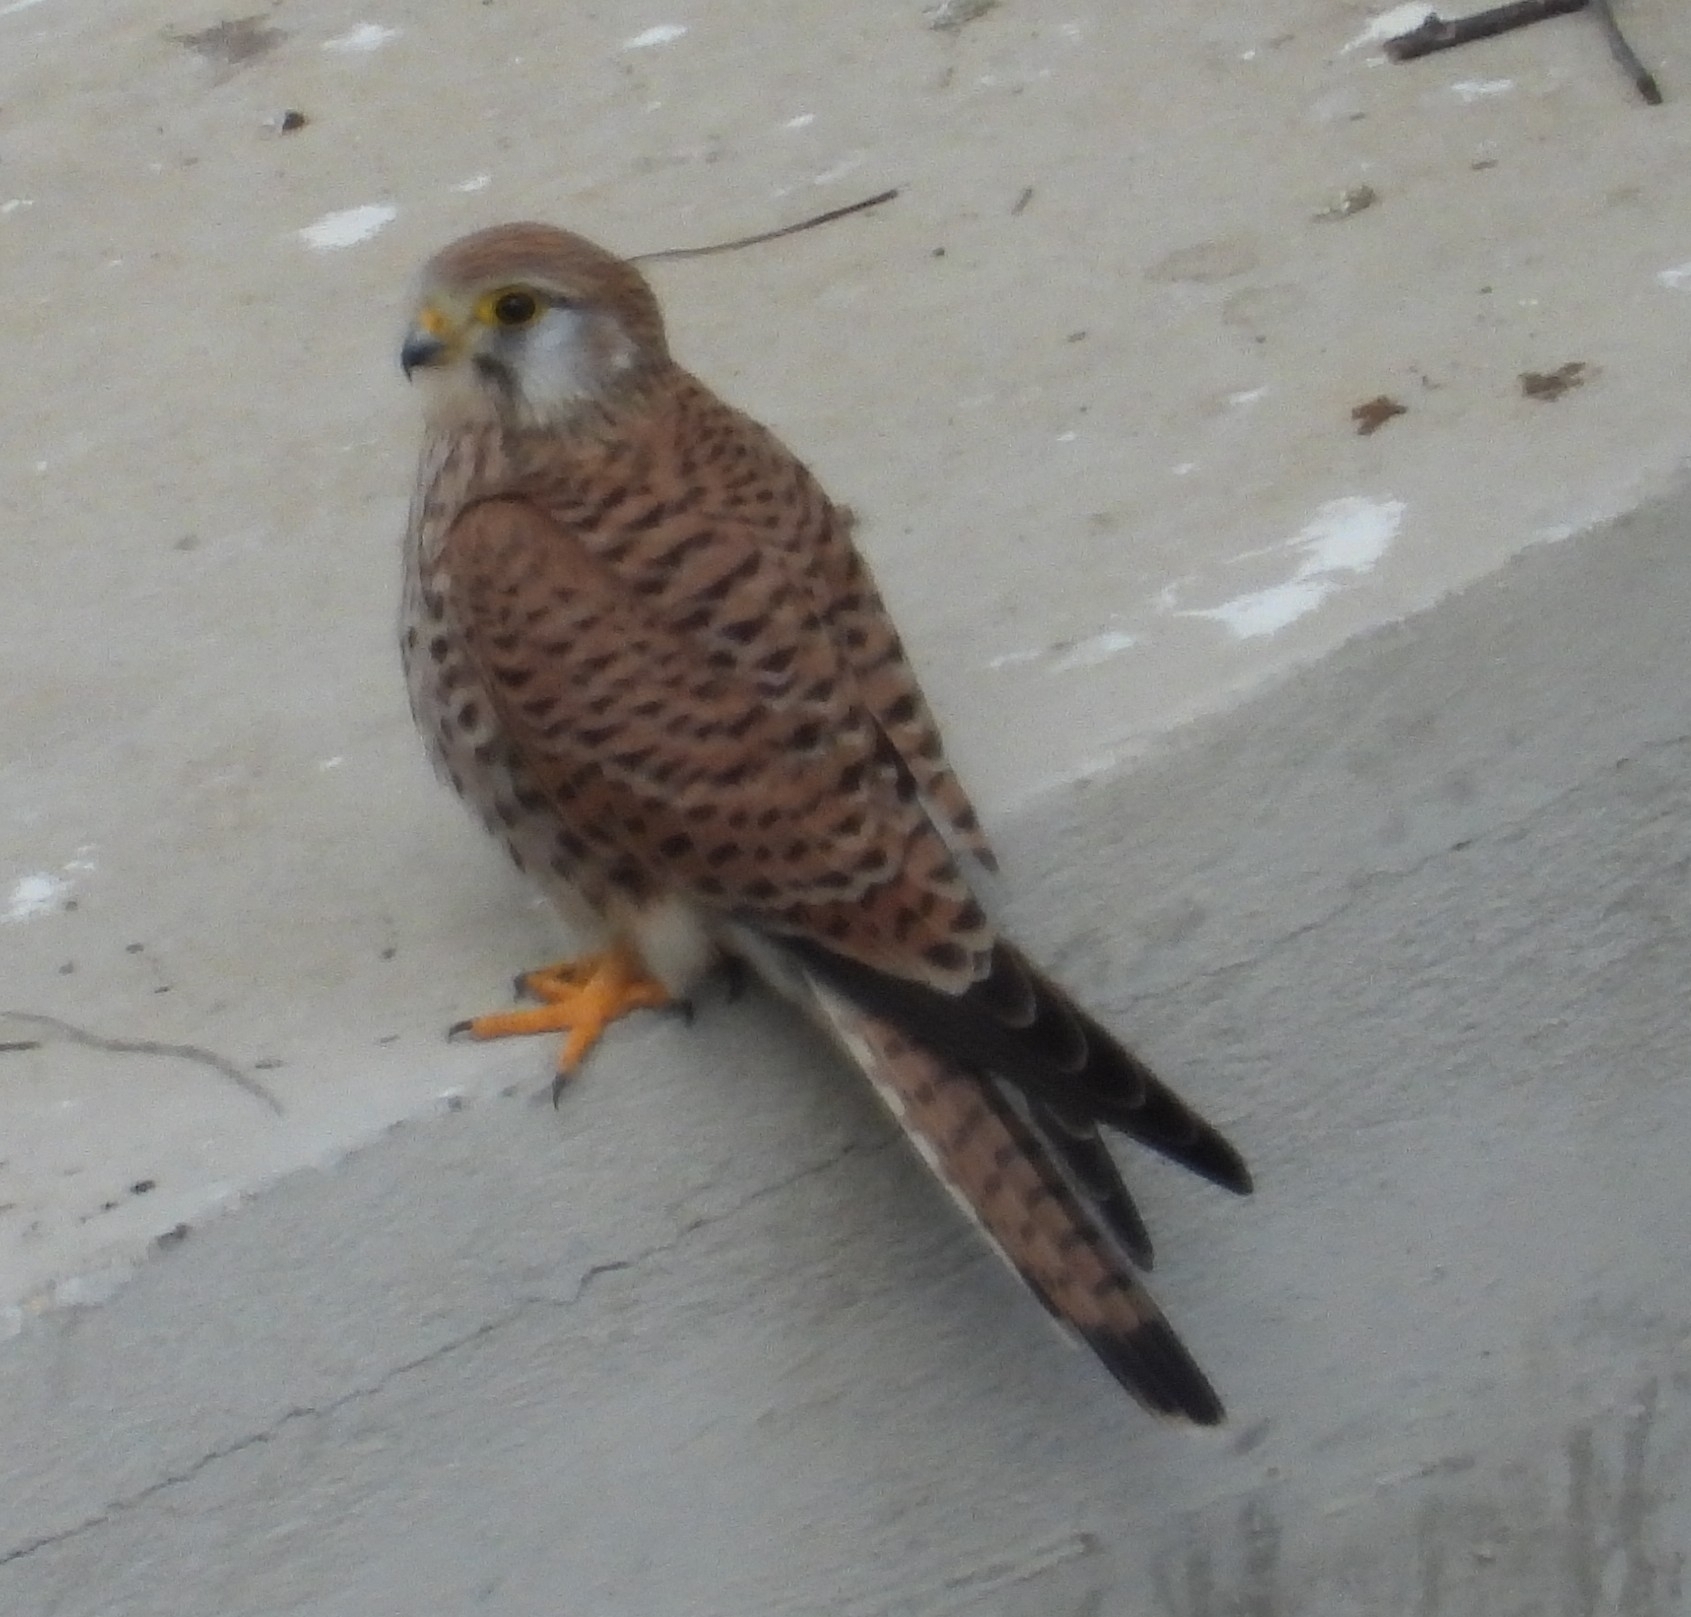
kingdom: Animalia
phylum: Chordata
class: Aves
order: Falconiformes
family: Falconidae
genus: Falco
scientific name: Falco tinnunculus
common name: Common kestrel
